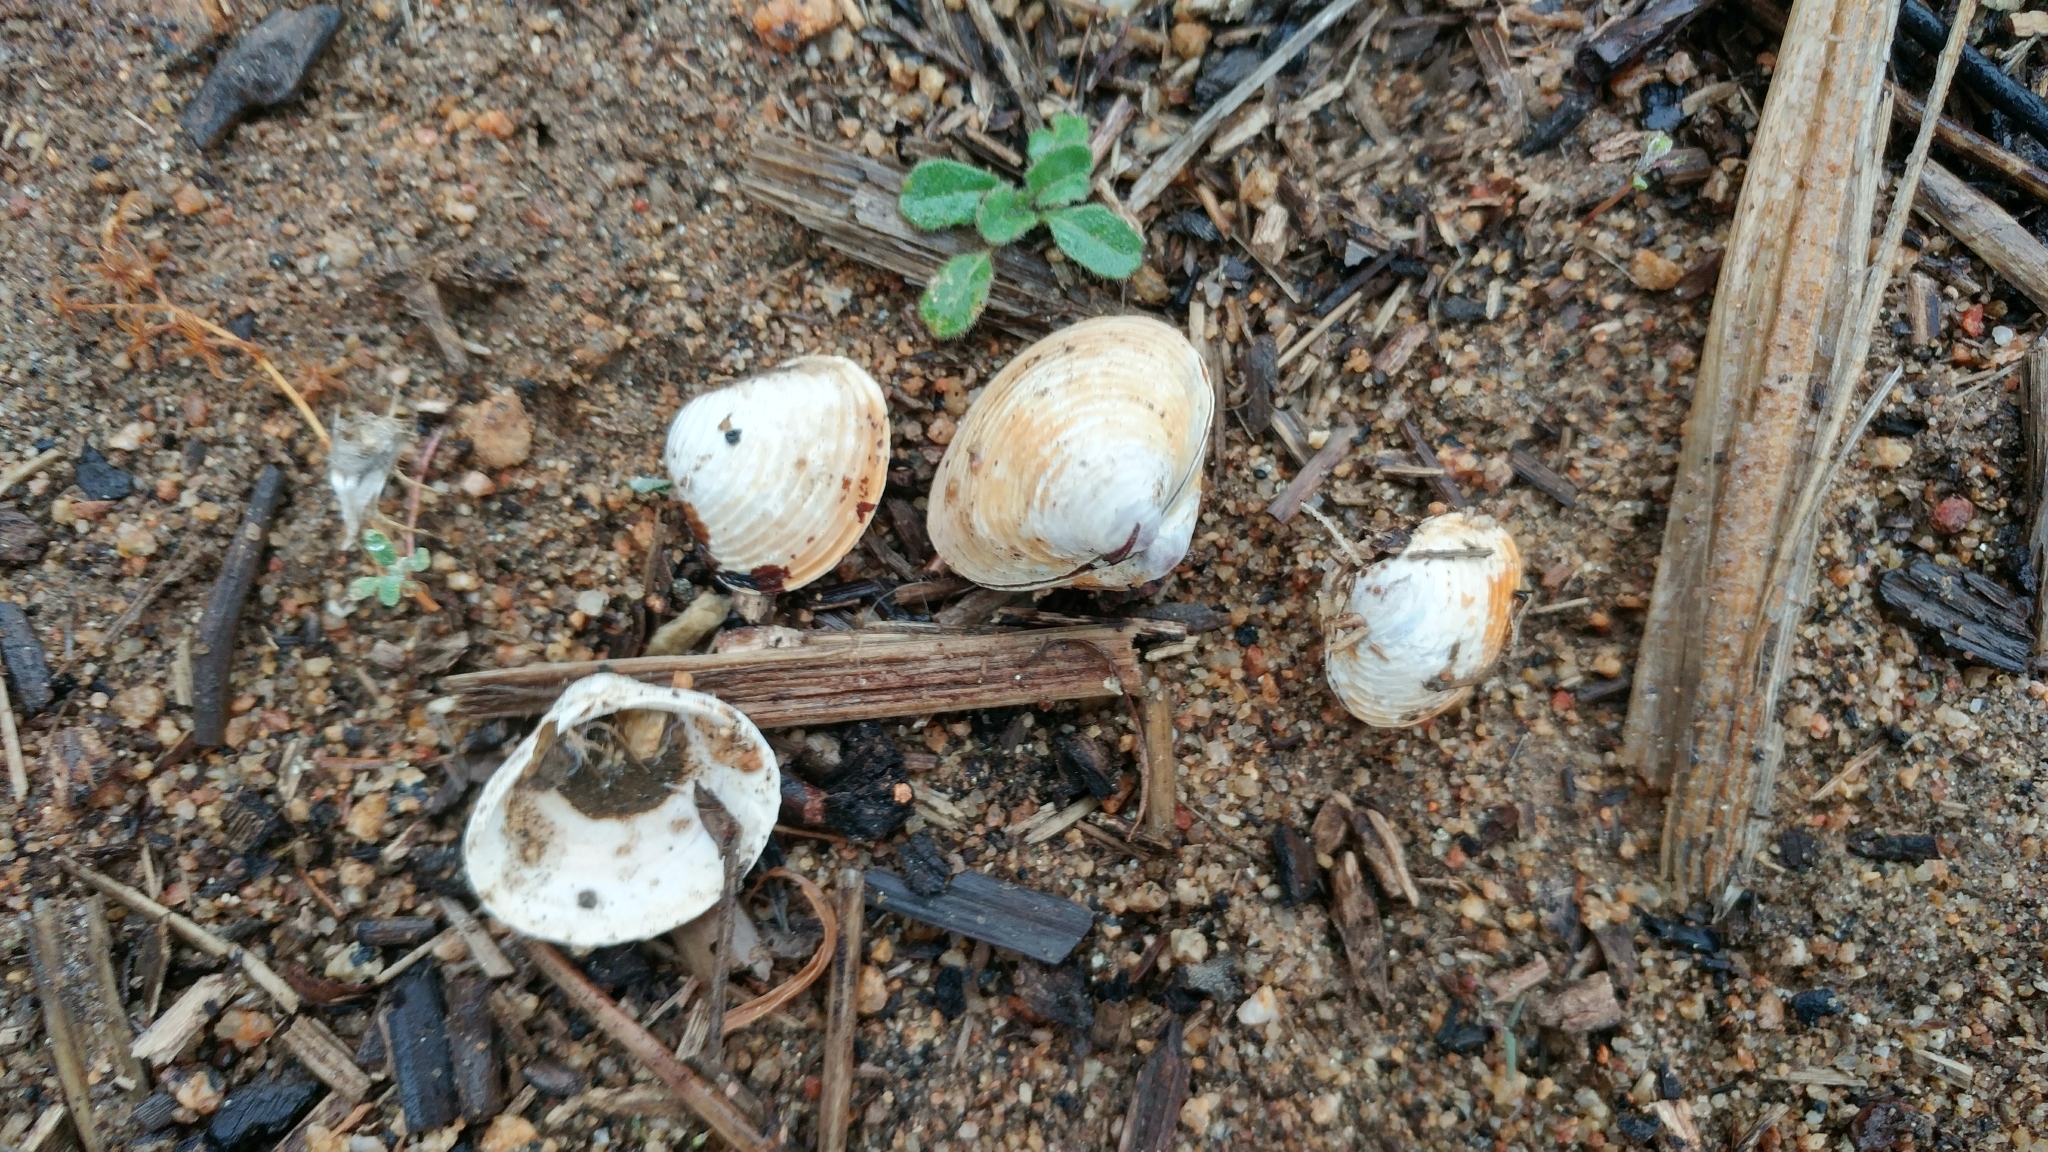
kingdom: Animalia
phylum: Mollusca
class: Bivalvia
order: Venerida
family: Cyrenidae
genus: Corbicula
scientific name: Corbicula fluminea
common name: Asian clam
